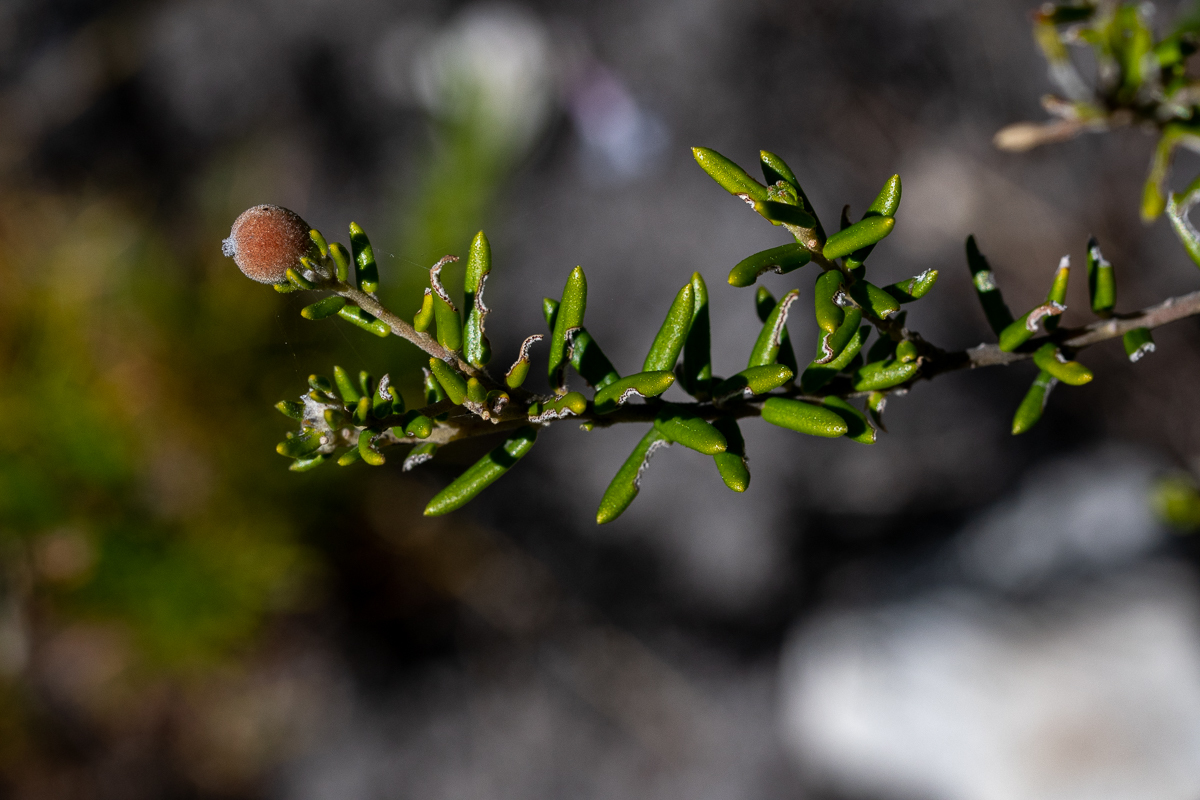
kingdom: Plantae
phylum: Tracheophyta
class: Magnoliopsida
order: Rosales
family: Rhamnaceae
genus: Phylica
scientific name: Phylica lasiocarpa
